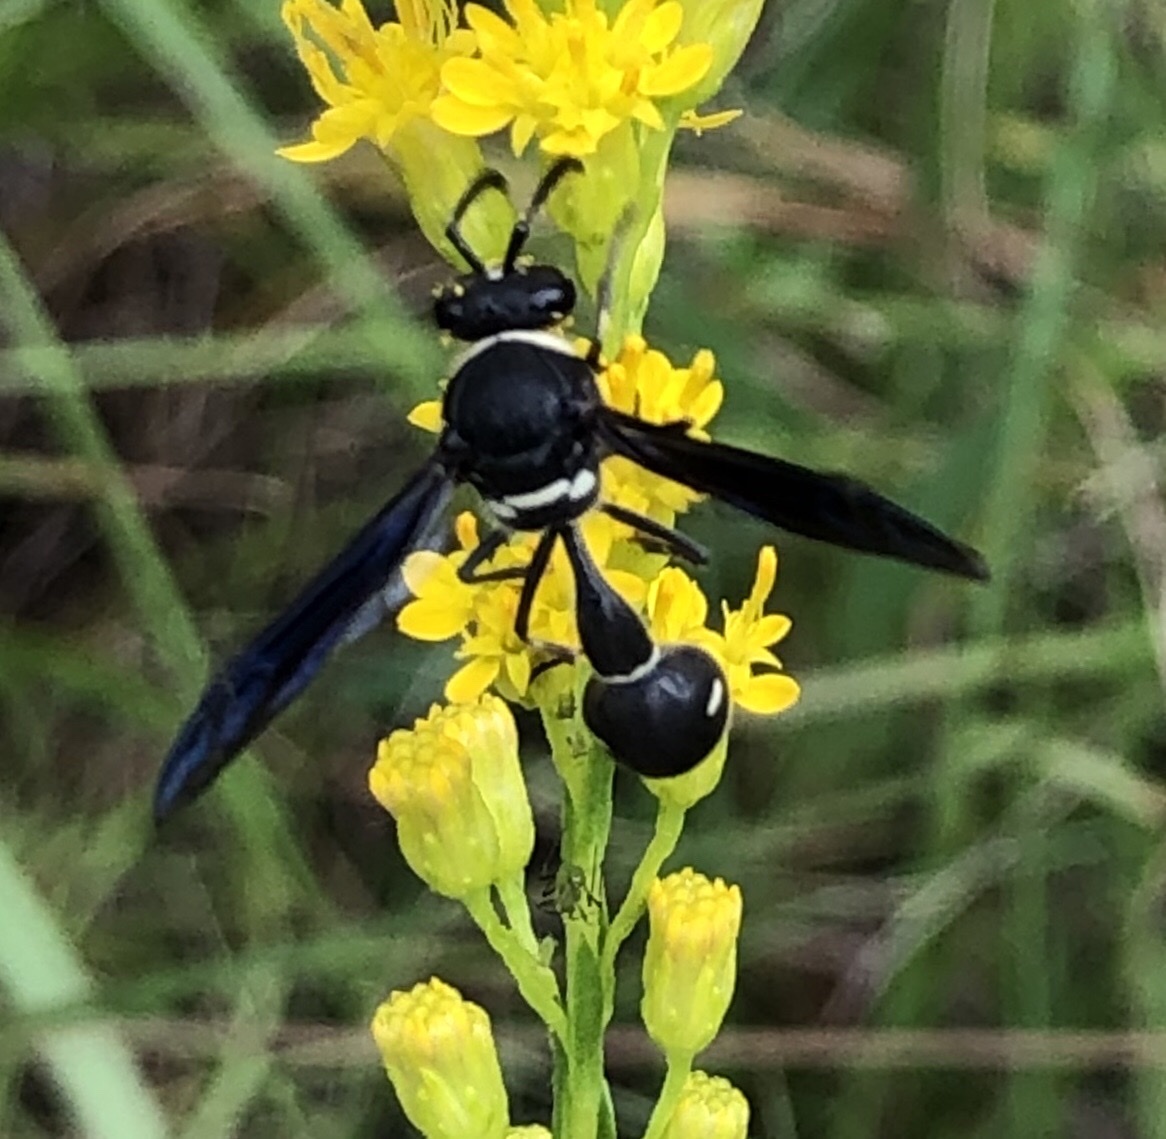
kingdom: Animalia
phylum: Arthropoda
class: Insecta
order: Hymenoptera
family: Vespidae
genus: Eumenes
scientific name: Eumenes fraternus
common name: Fraternal potter wasp
